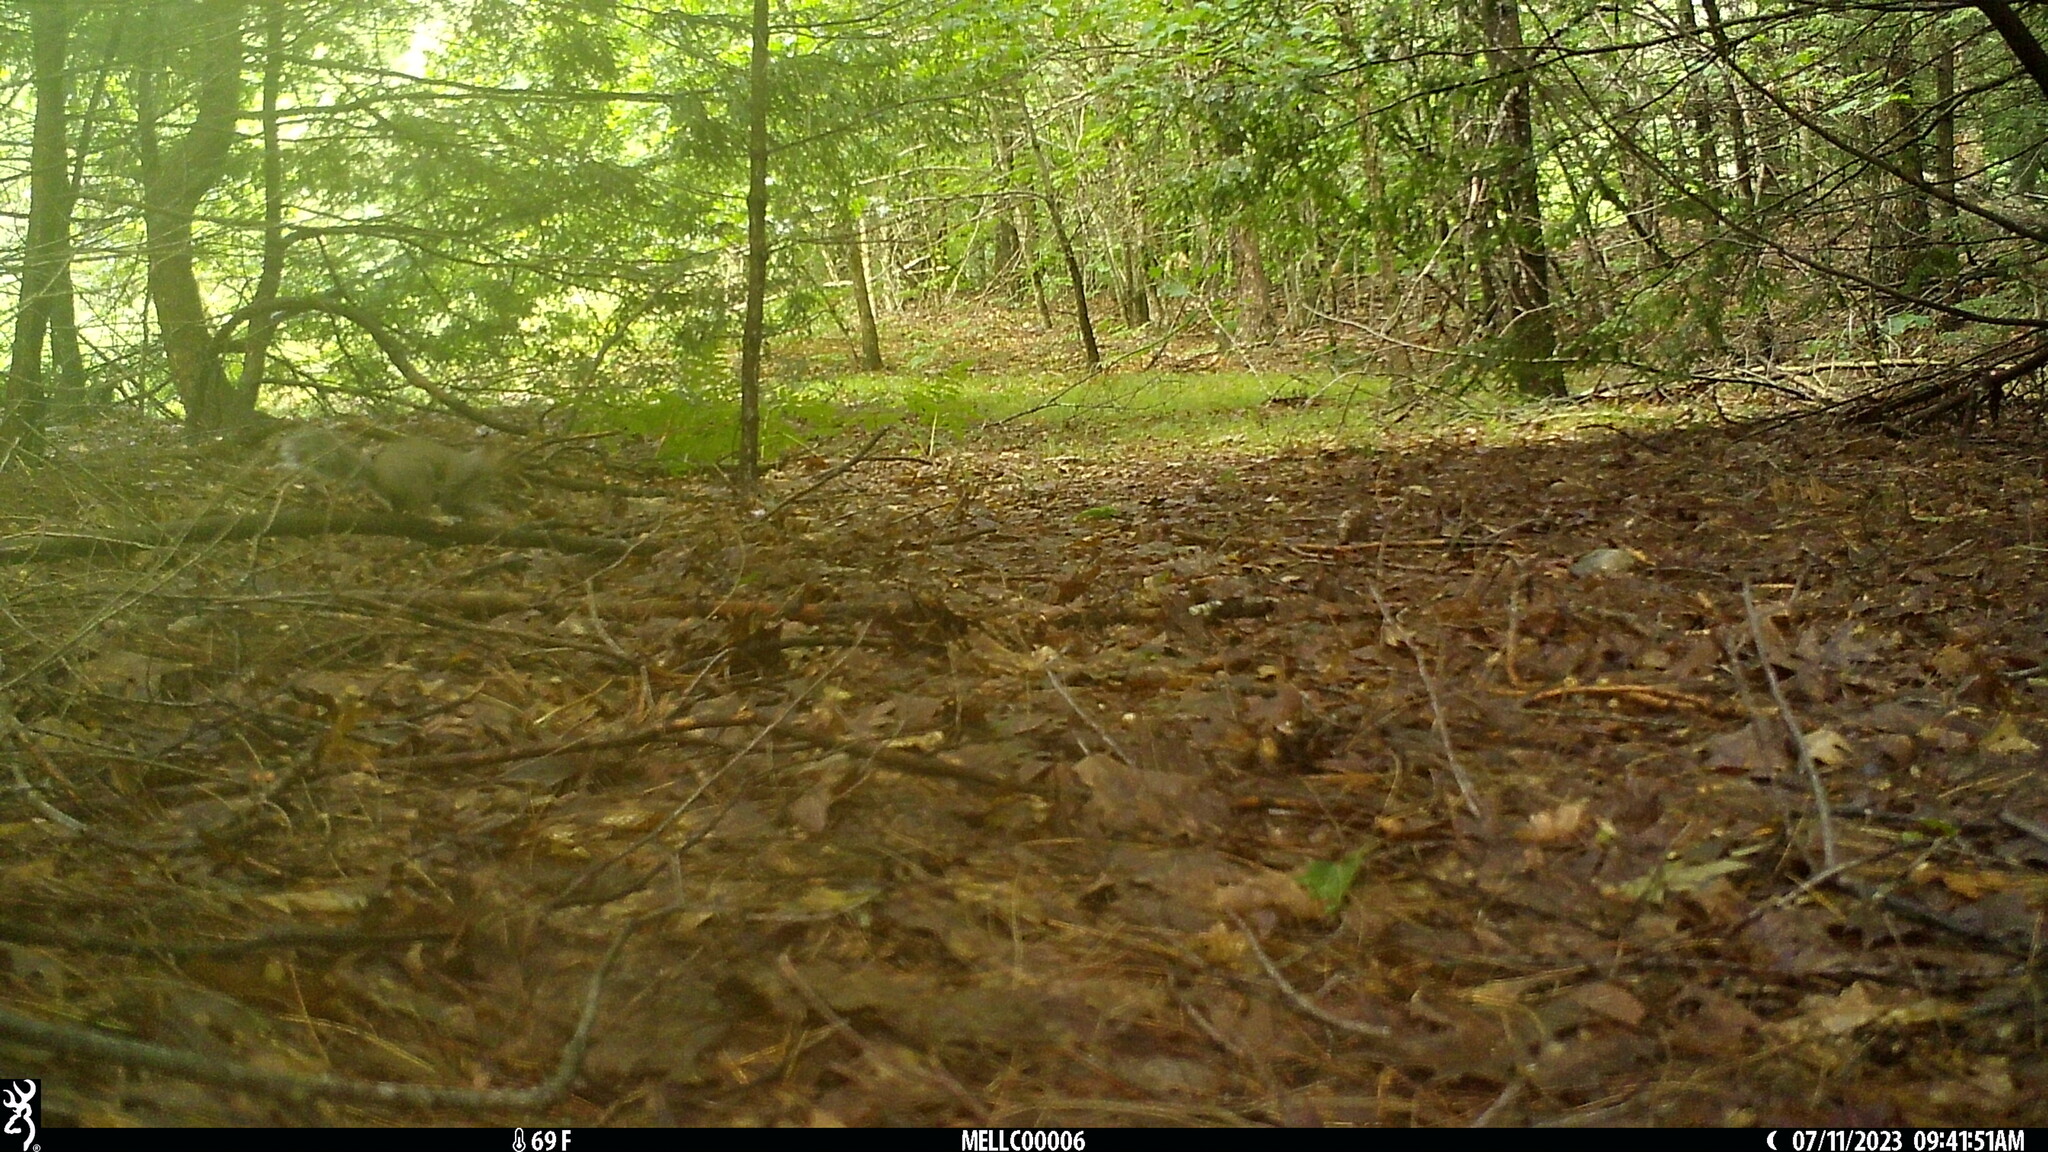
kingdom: Animalia
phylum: Chordata
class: Mammalia
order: Rodentia
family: Sciuridae
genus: Sciurus
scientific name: Sciurus carolinensis
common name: Eastern gray squirrel
